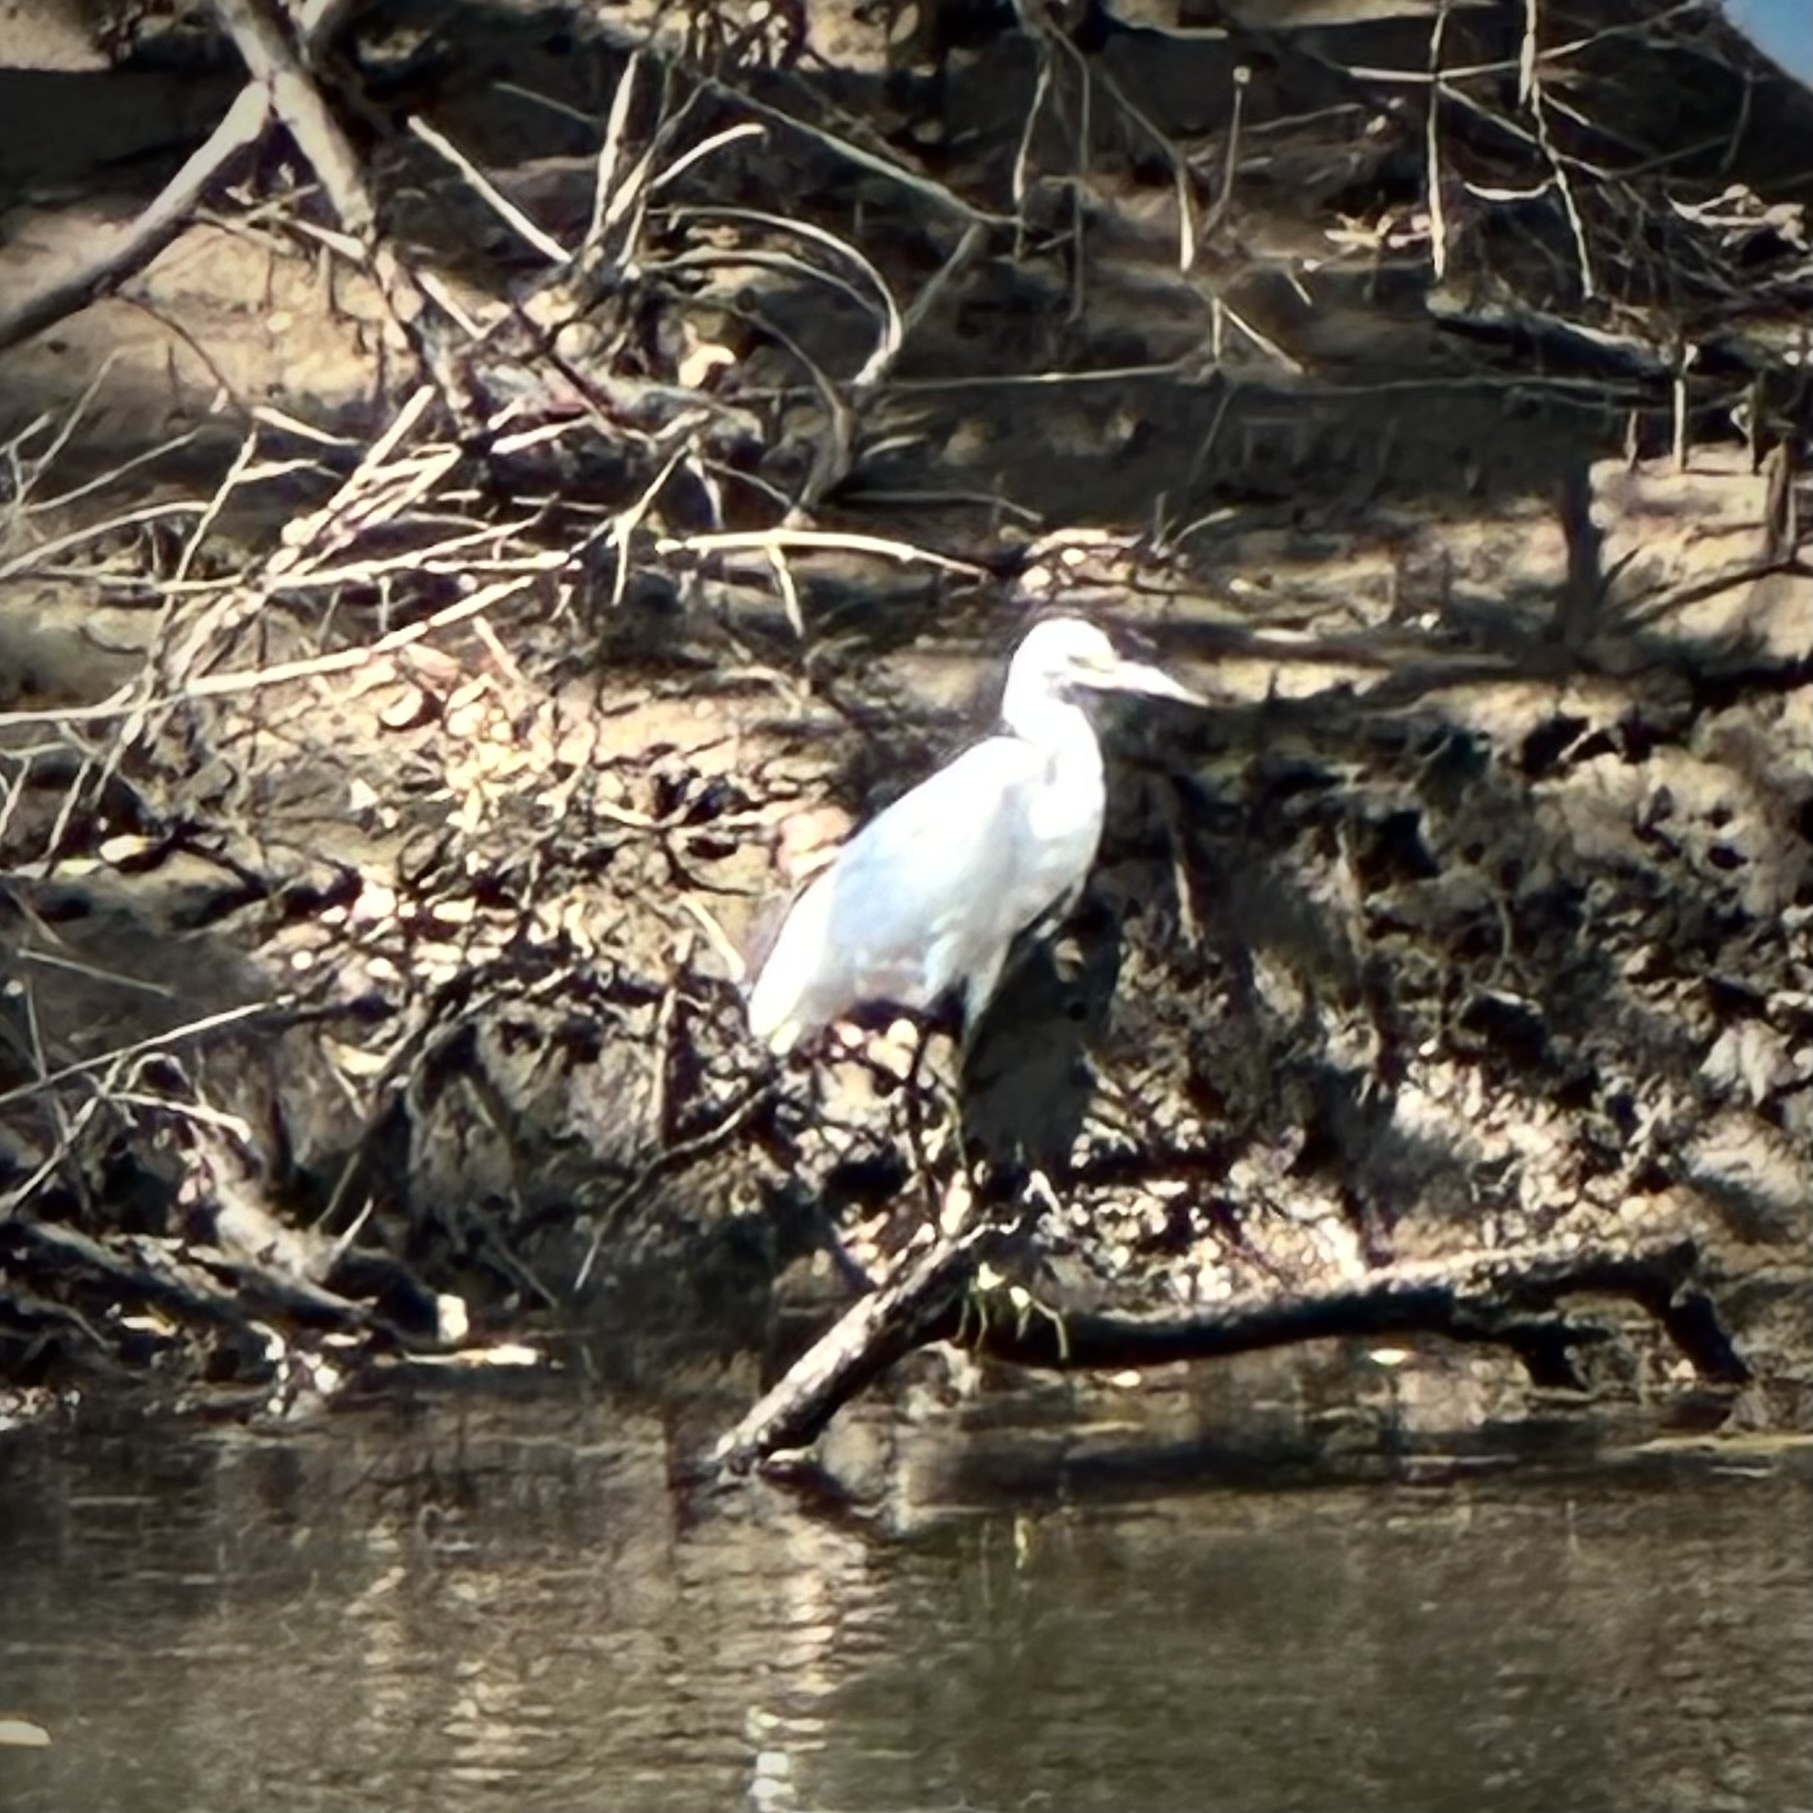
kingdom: Animalia
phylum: Chordata
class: Aves
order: Pelecaniformes
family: Ardeidae
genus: Egretta
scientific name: Egretta thula
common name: Snowy egret
